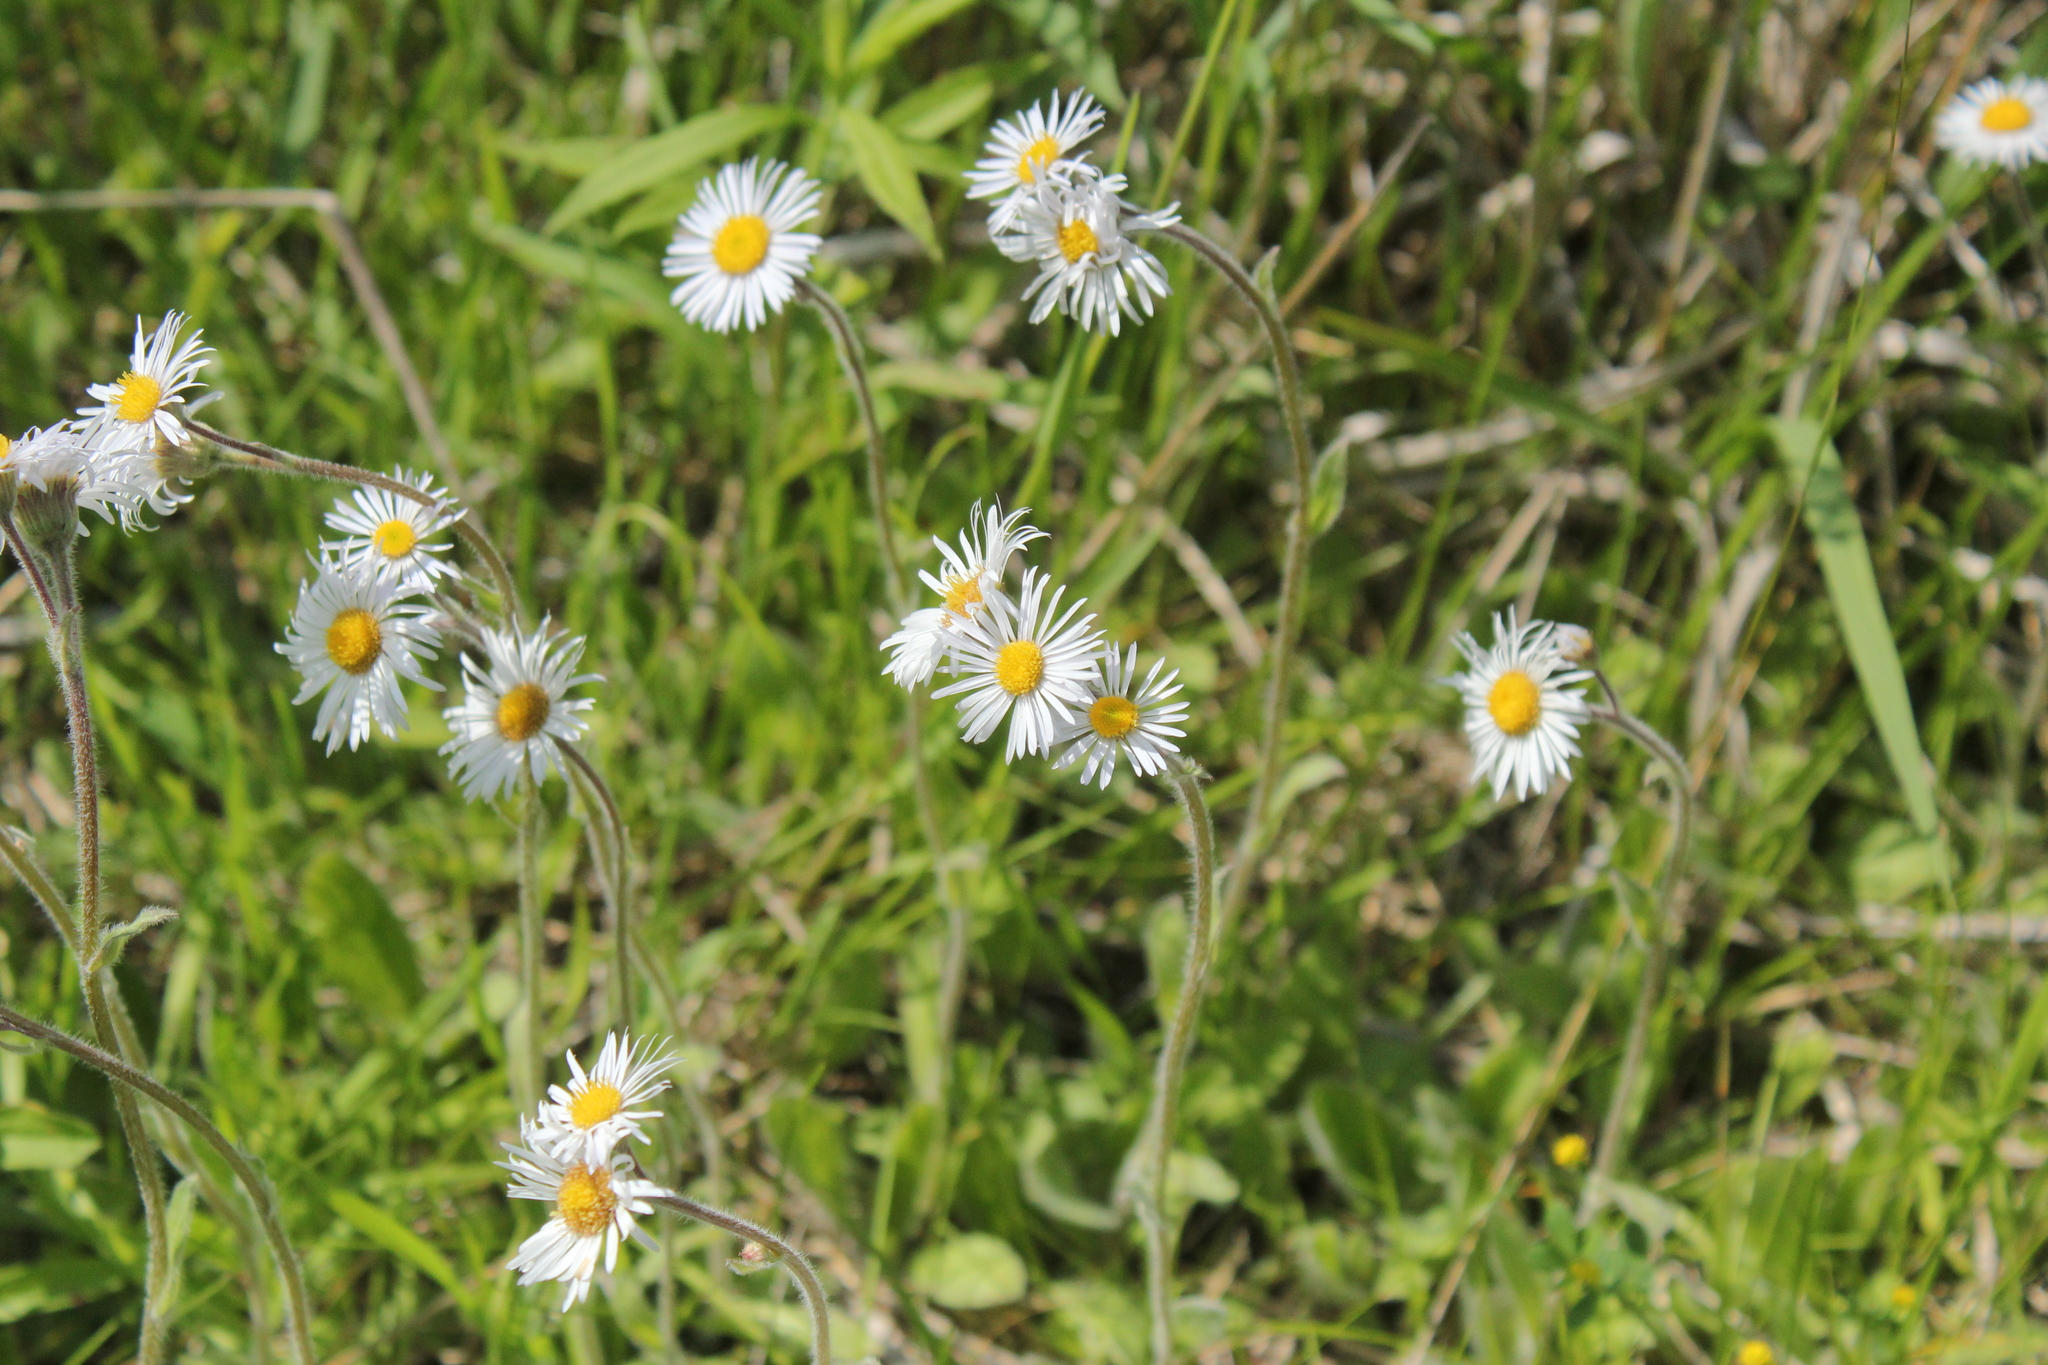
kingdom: Plantae
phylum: Tracheophyta
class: Magnoliopsida
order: Asterales
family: Asteraceae
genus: Erigeron
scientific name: Erigeron pulchellus
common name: Hairy fleabane
